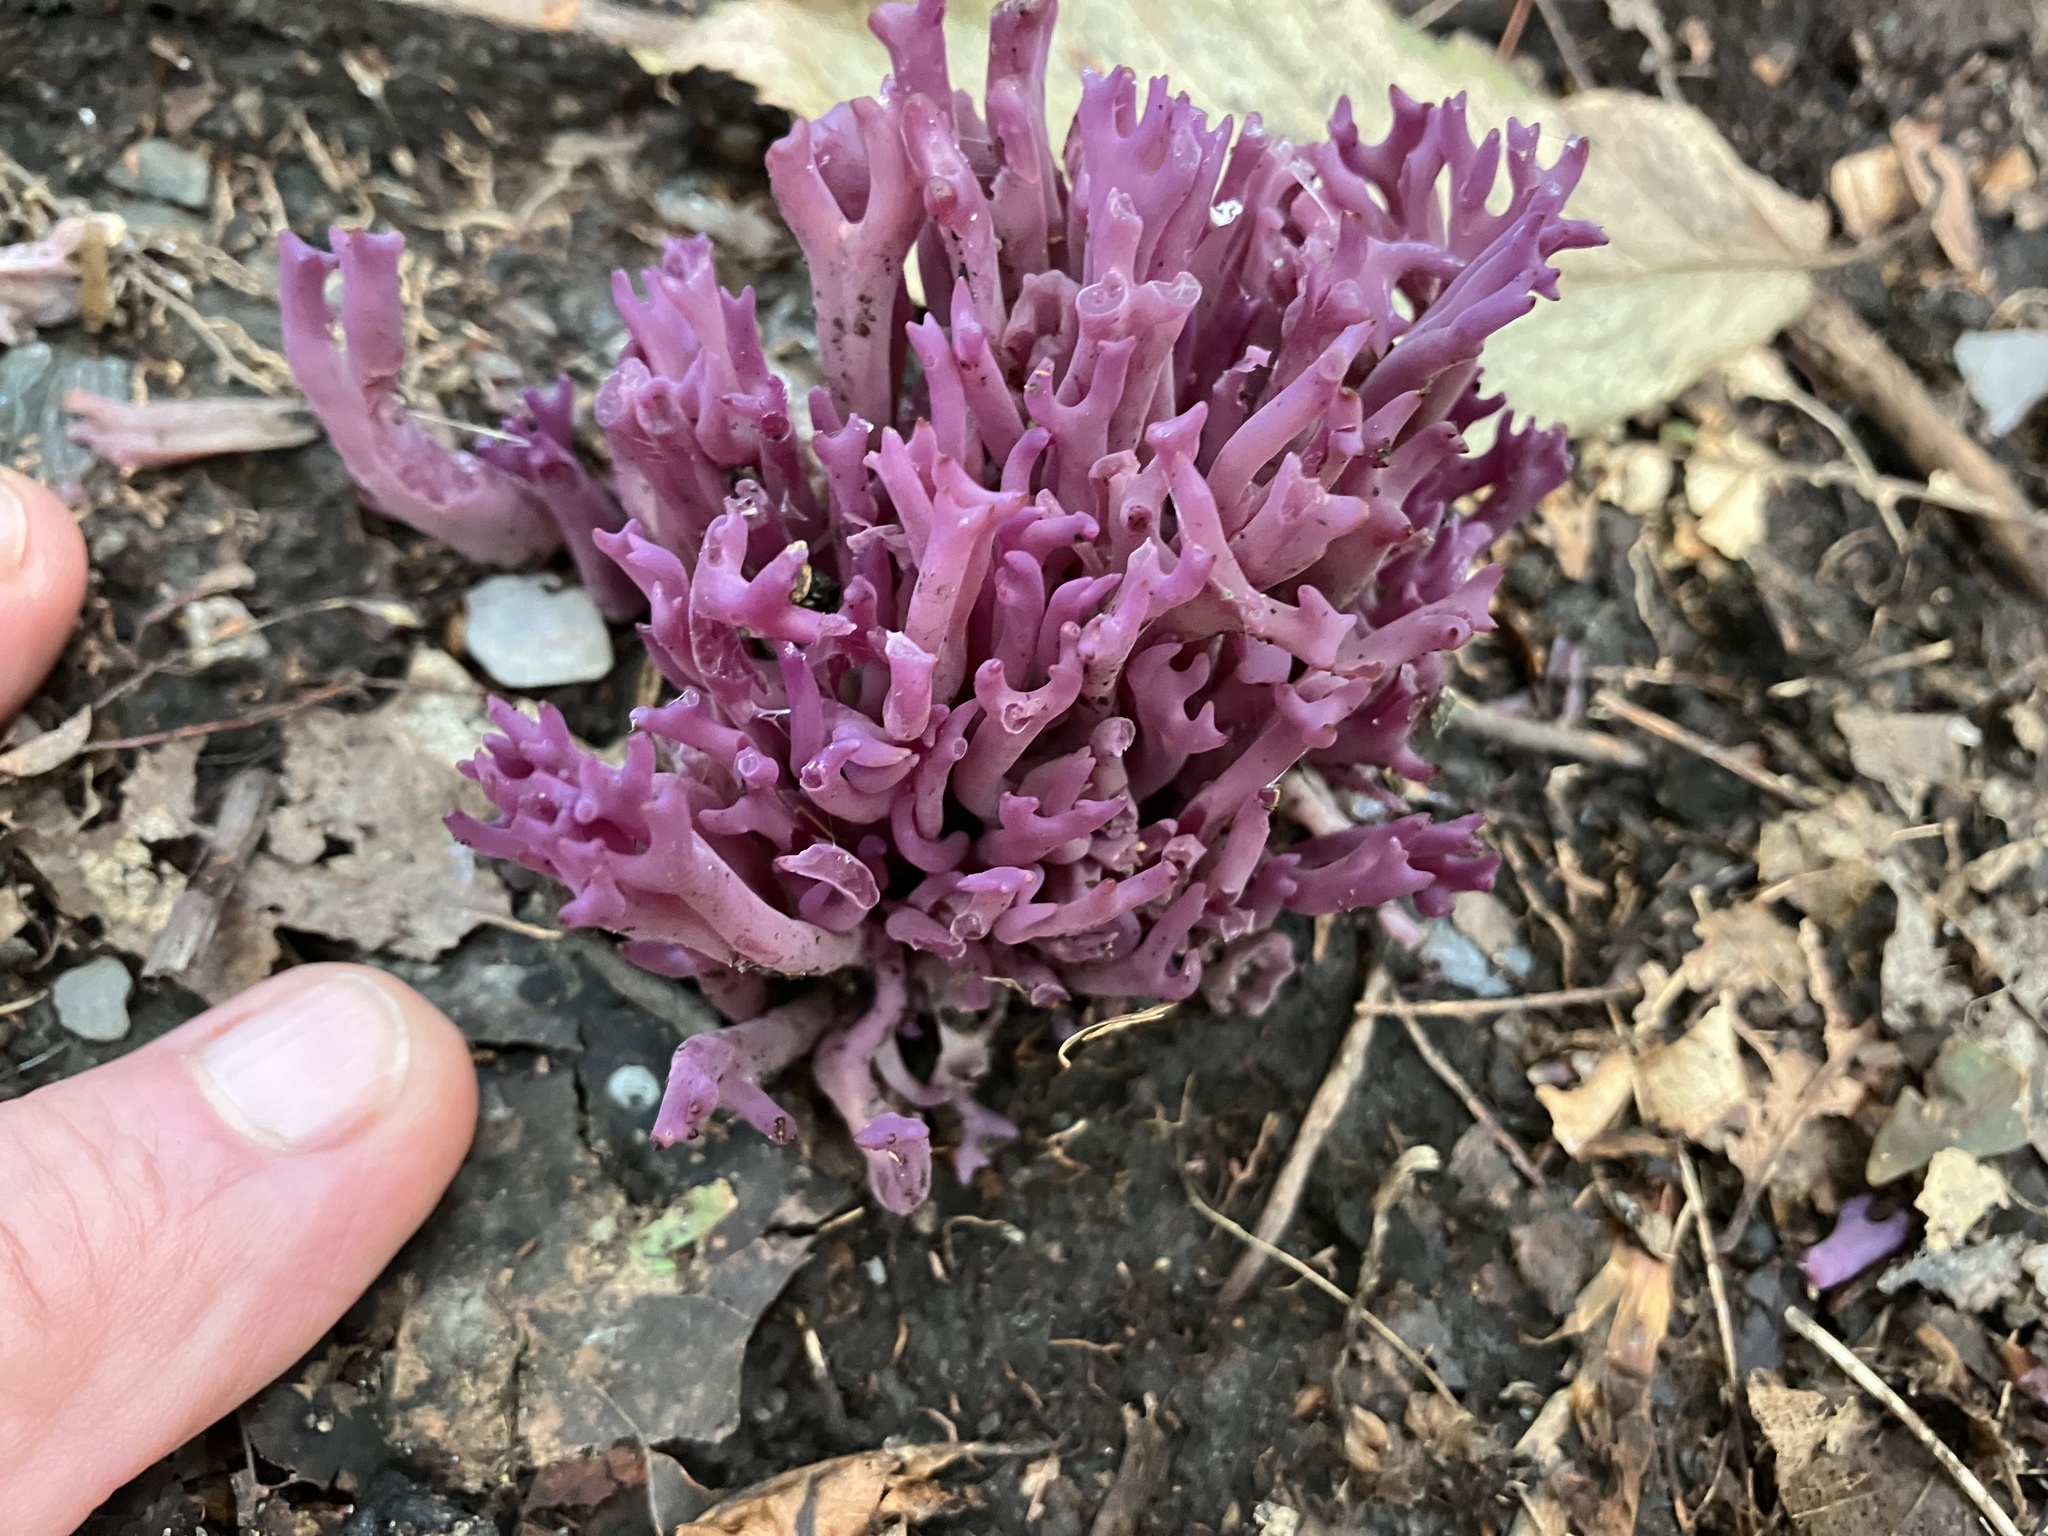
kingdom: Fungi
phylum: Basidiomycota
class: Agaricomycetes
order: Agaricales
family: Clavariaceae
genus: Clavaria
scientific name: Clavaria zollingeri
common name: Violet coral
